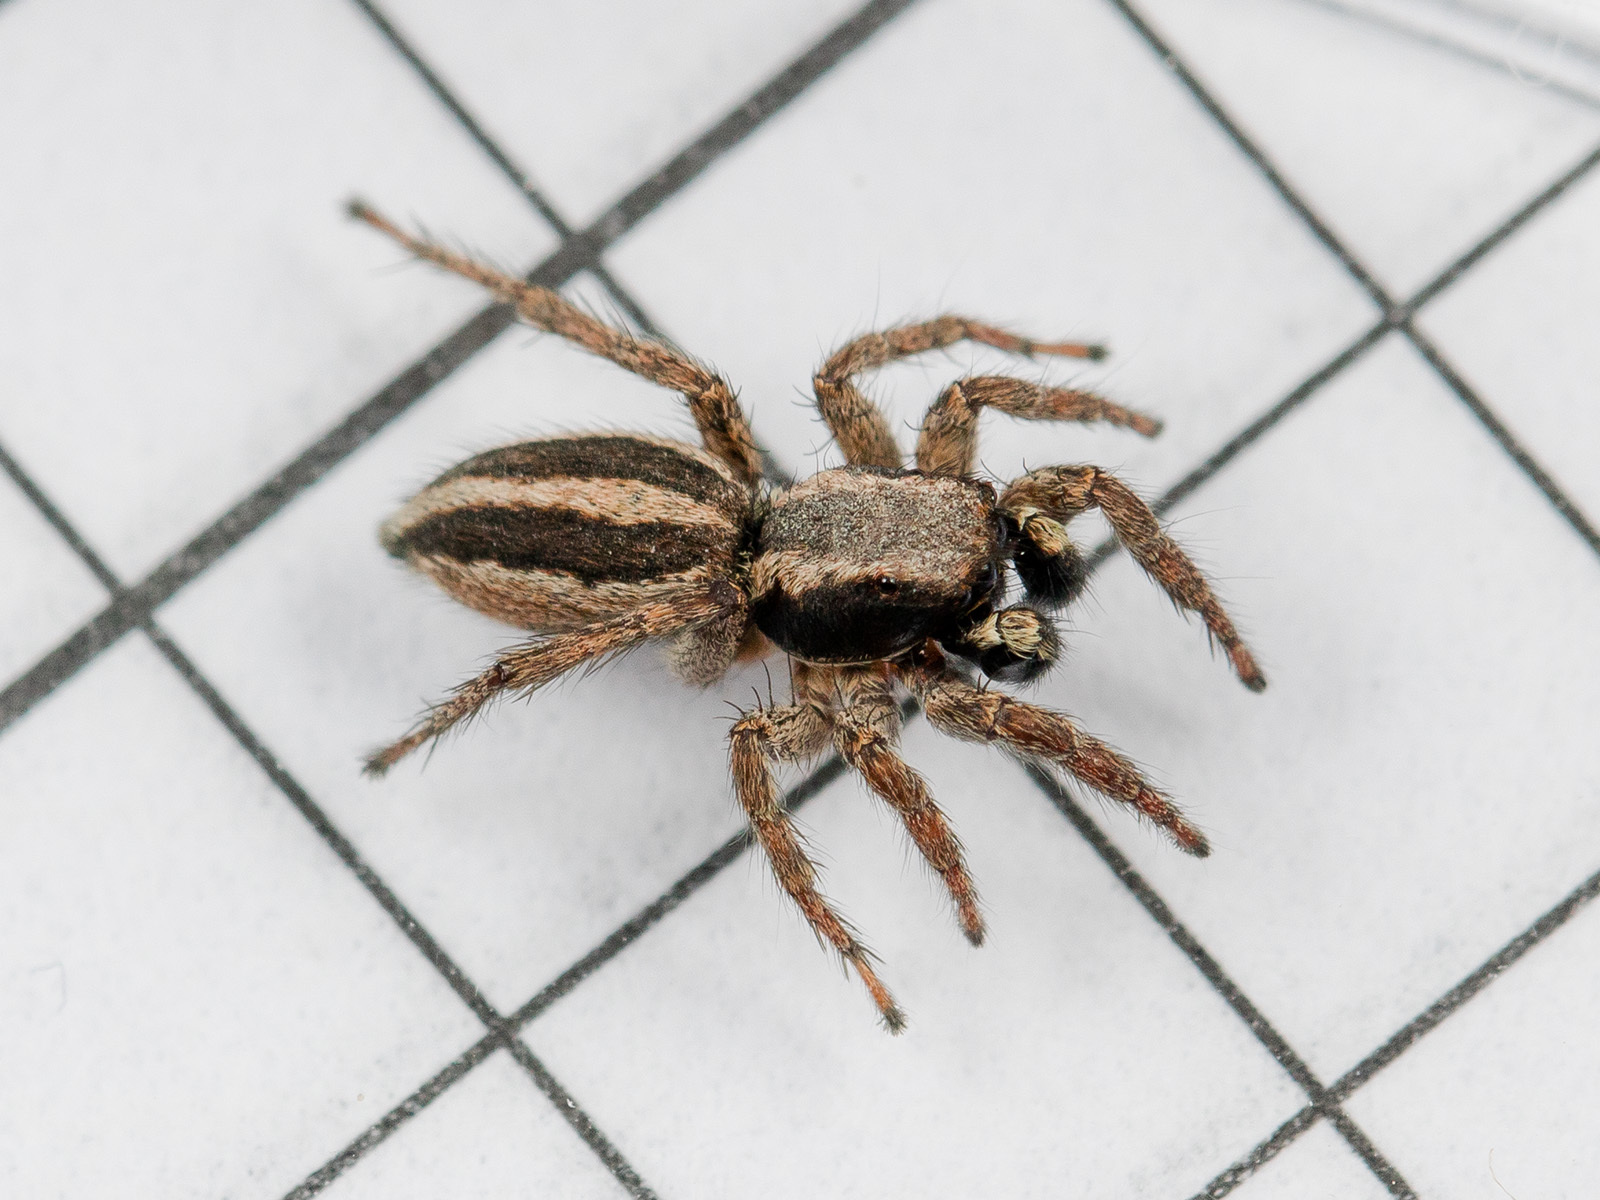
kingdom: Animalia
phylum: Arthropoda
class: Arachnida
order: Araneae
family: Salticidae
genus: Phlegra
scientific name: Phlegra andreevae
